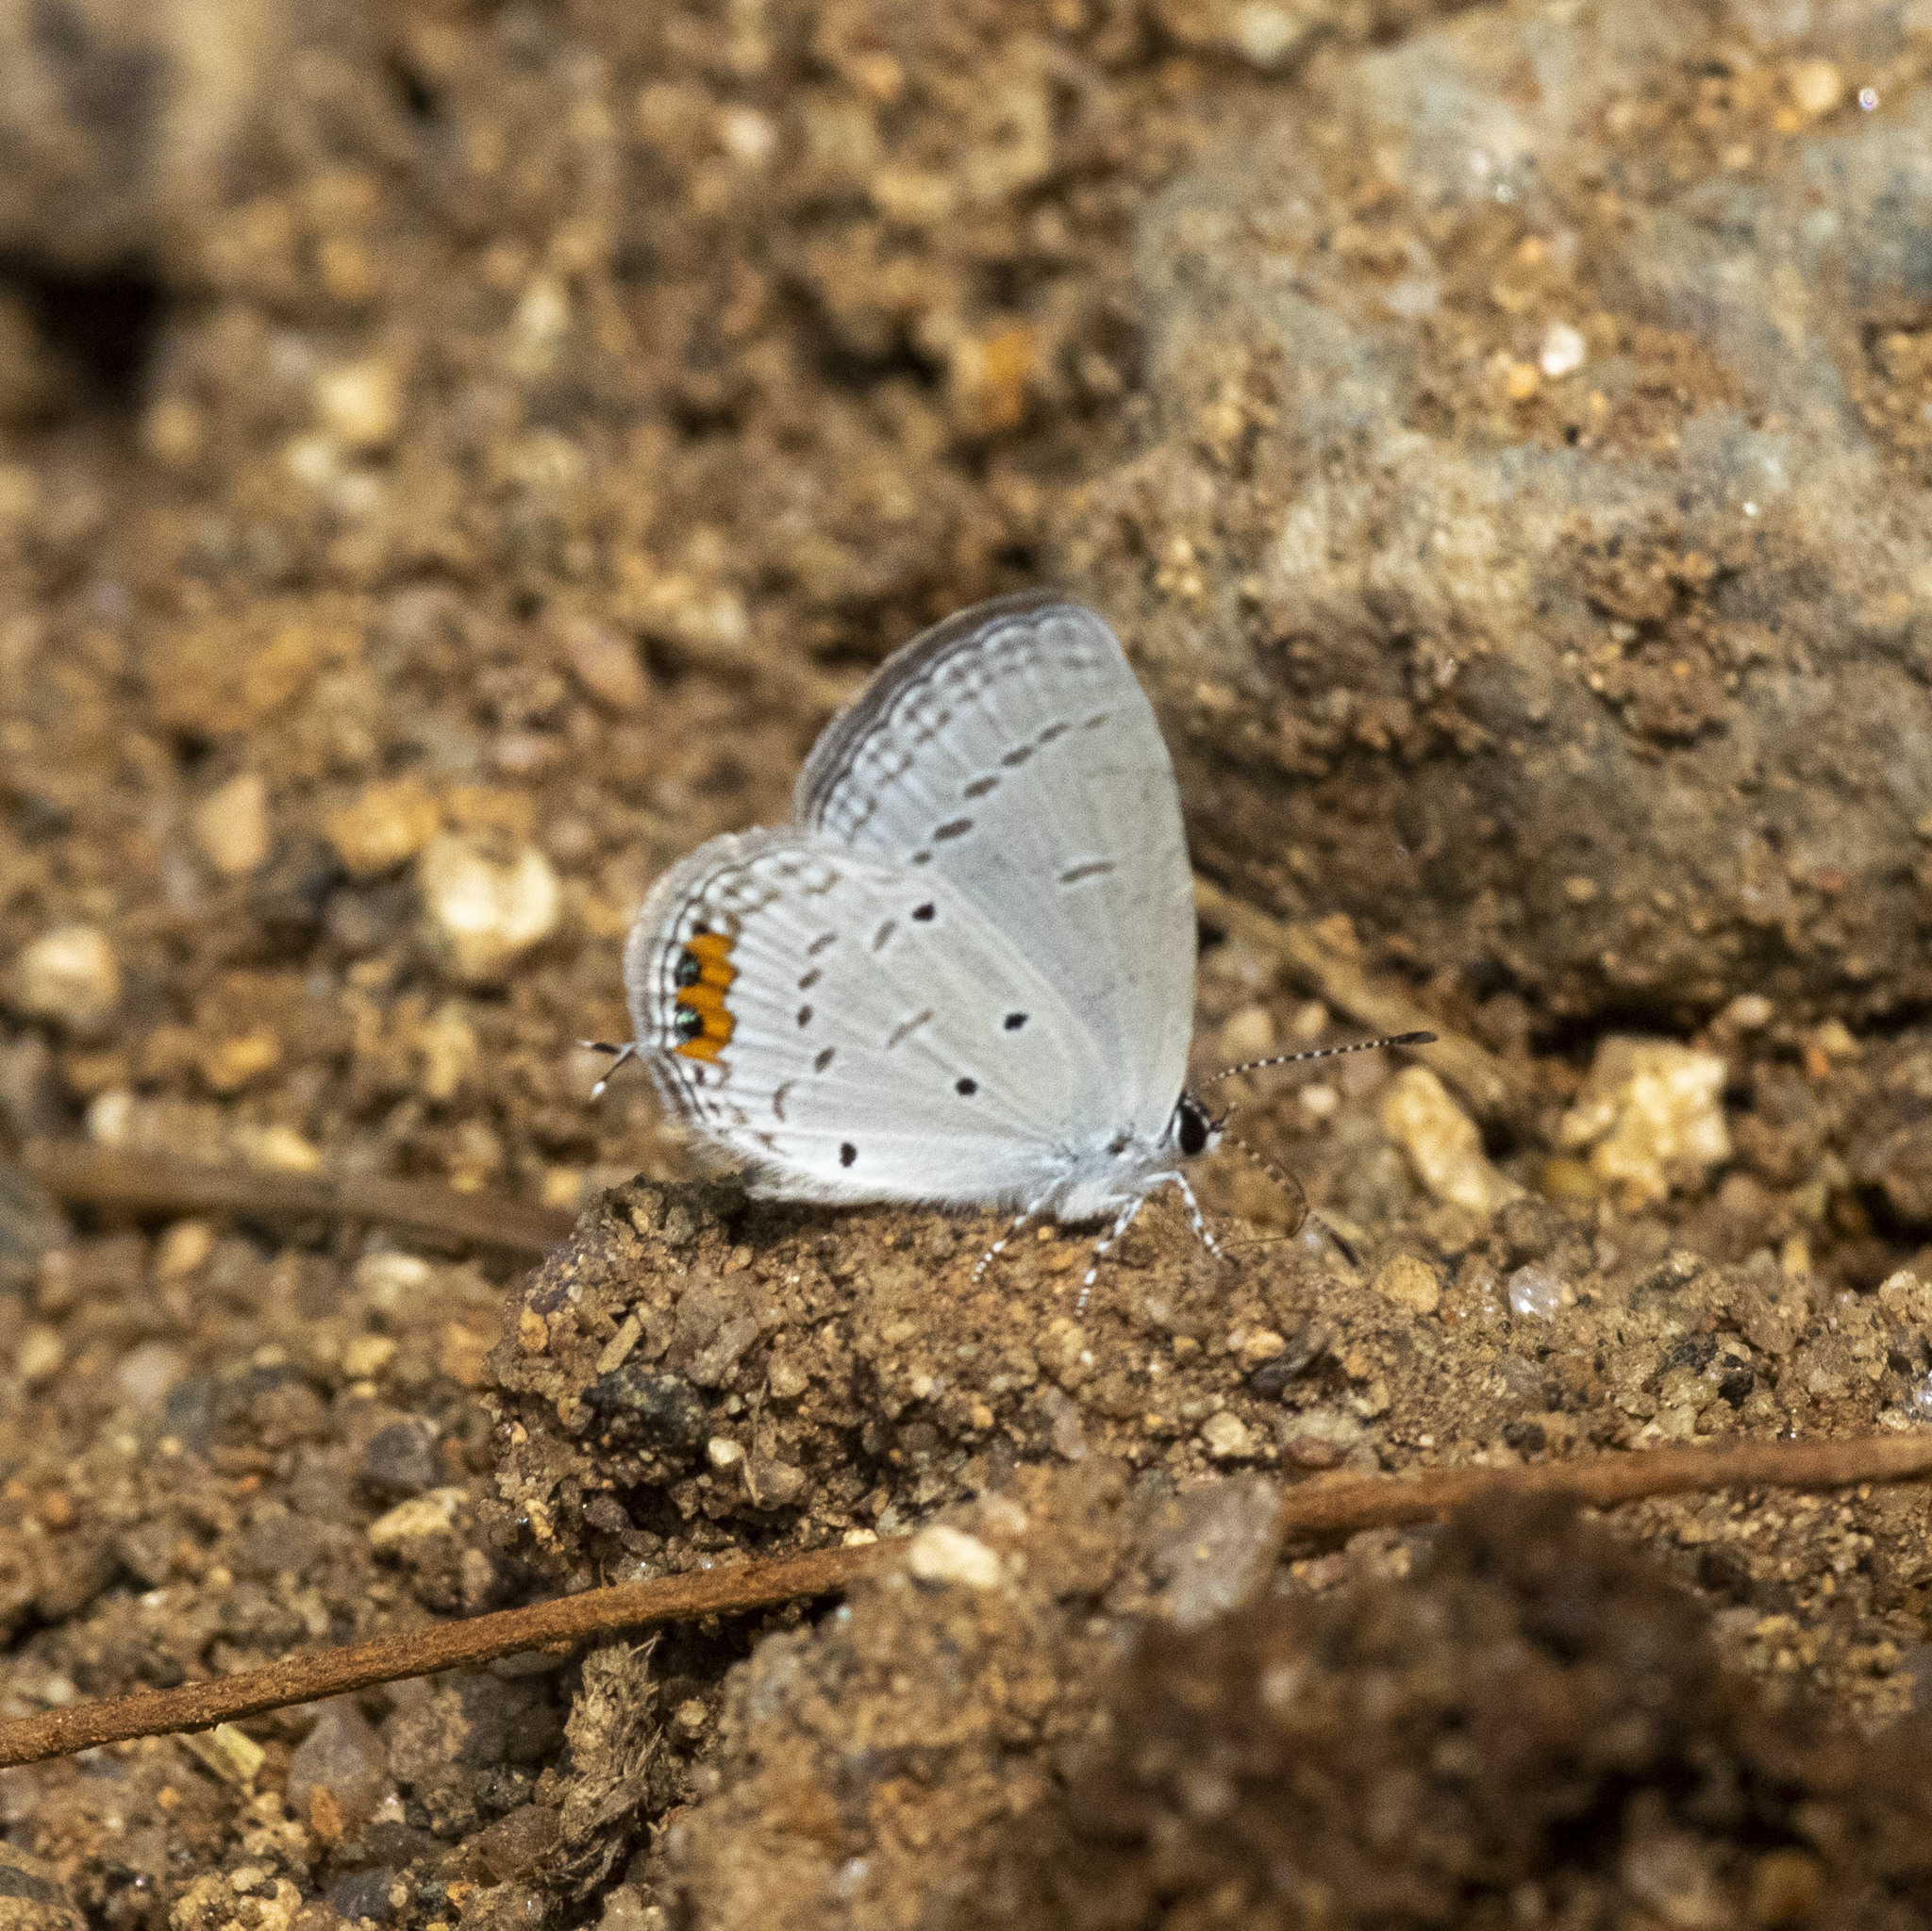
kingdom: Animalia
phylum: Arthropoda
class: Insecta
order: Lepidoptera
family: Lycaenidae
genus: Everes
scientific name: Everes lacturnus
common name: Orange-tipped pea-blue
